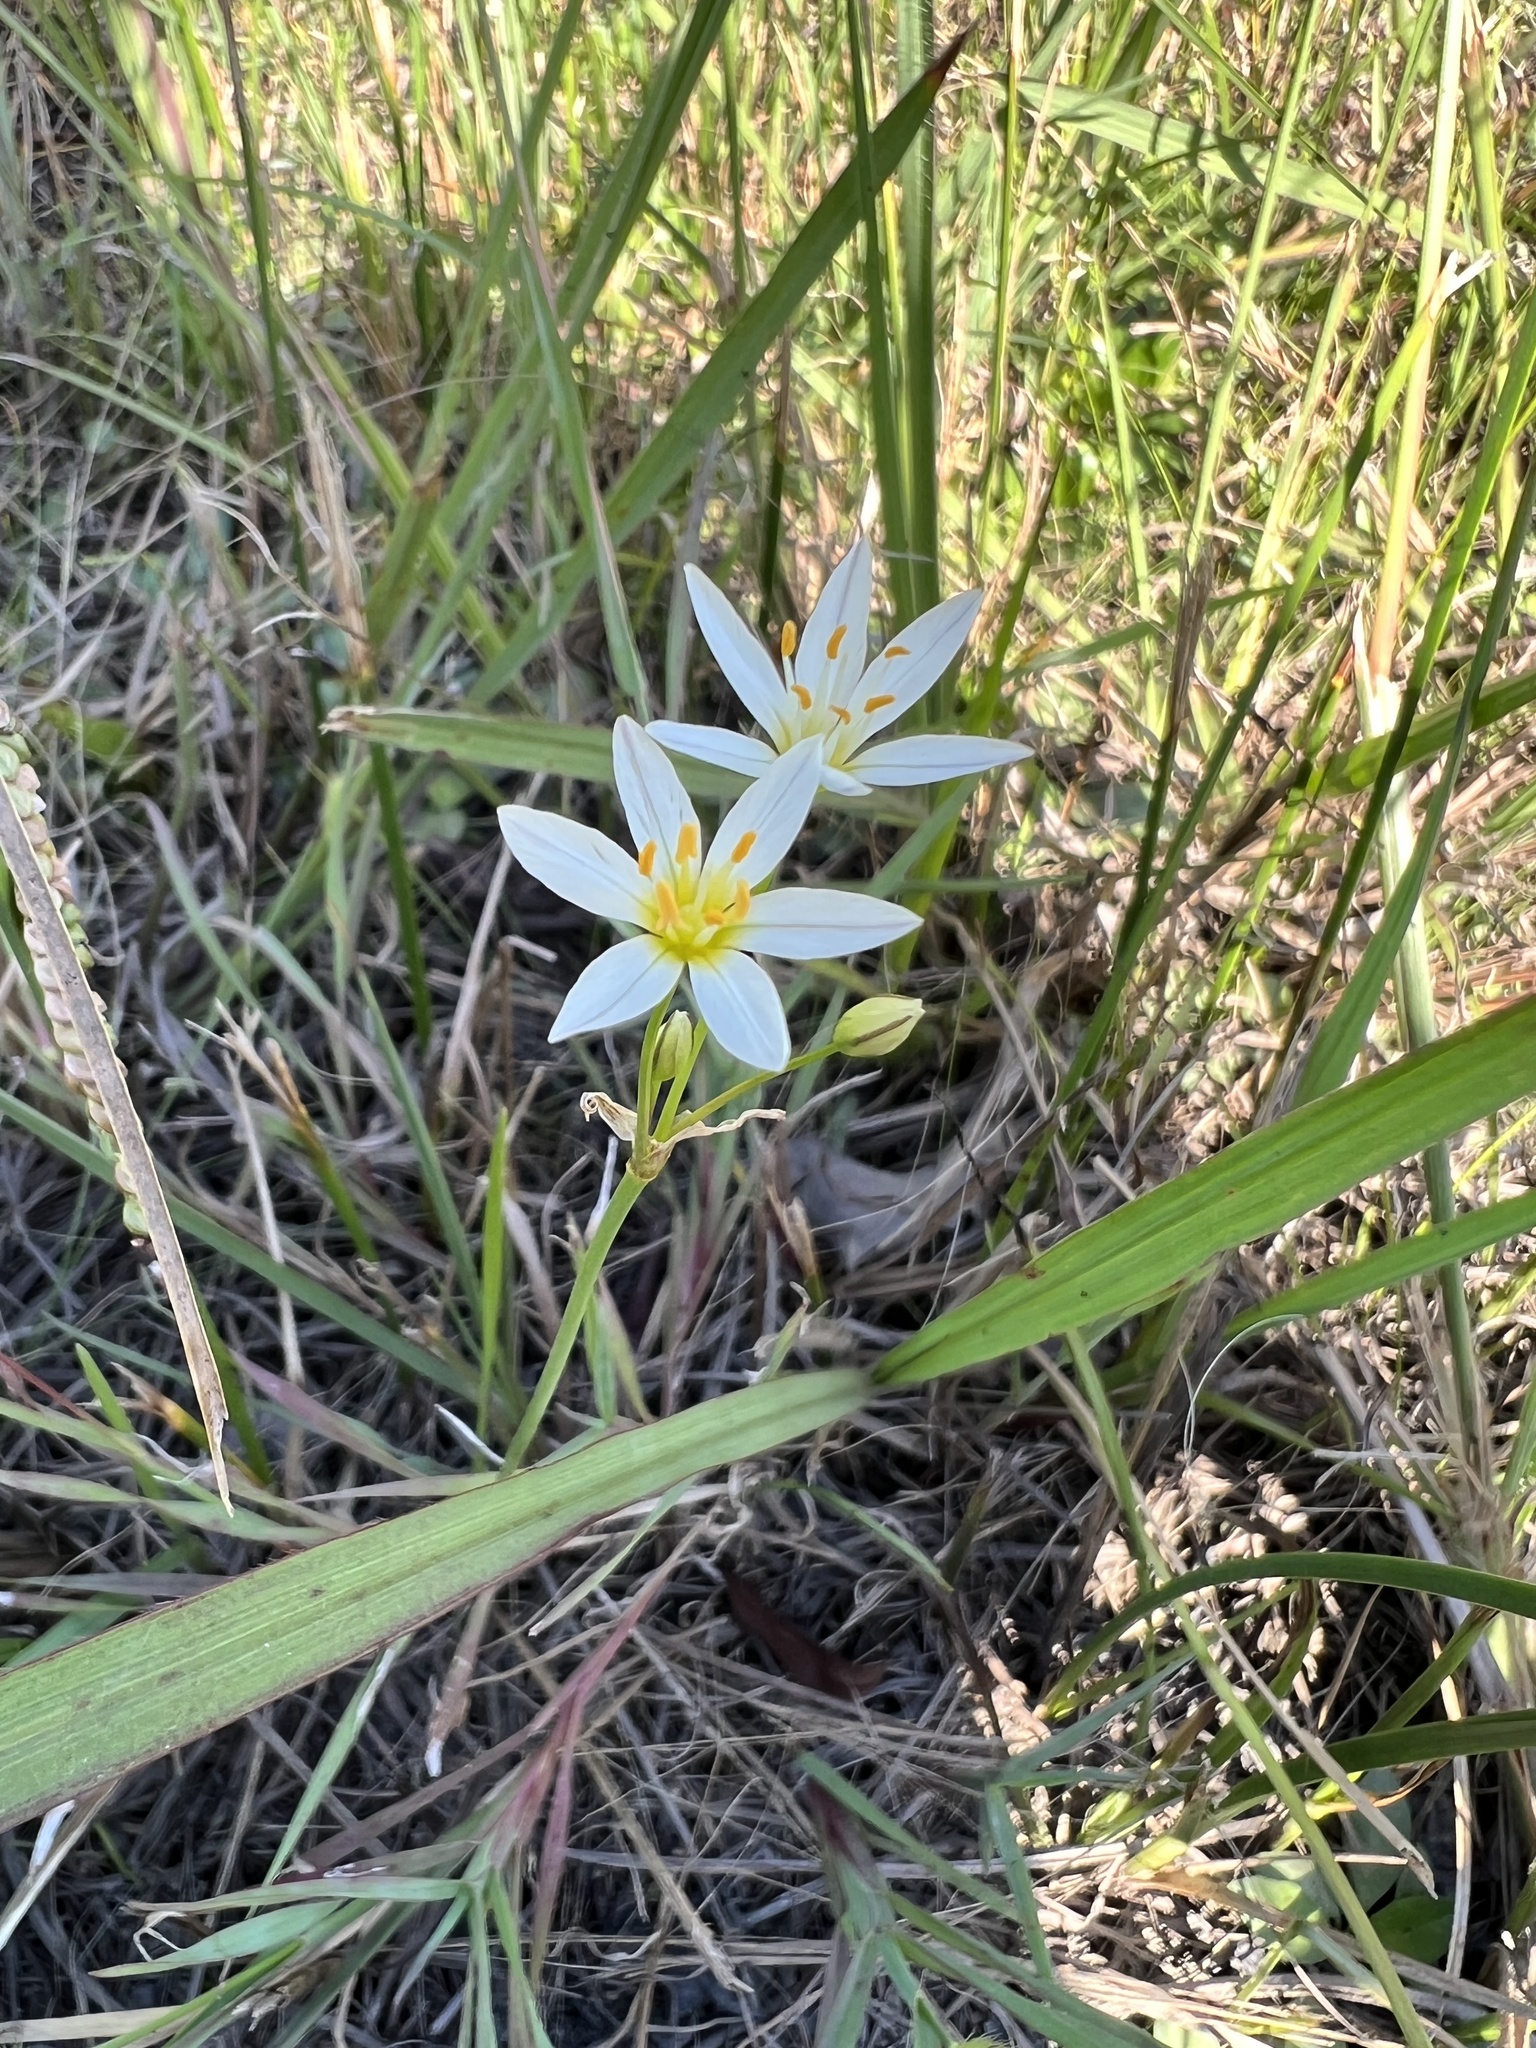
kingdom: Plantae
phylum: Tracheophyta
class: Liliopsida
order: Asparagales
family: Amaryllidaceae
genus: Nothoscordum
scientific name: Nothoscordum bivalve
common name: Crow-poison
